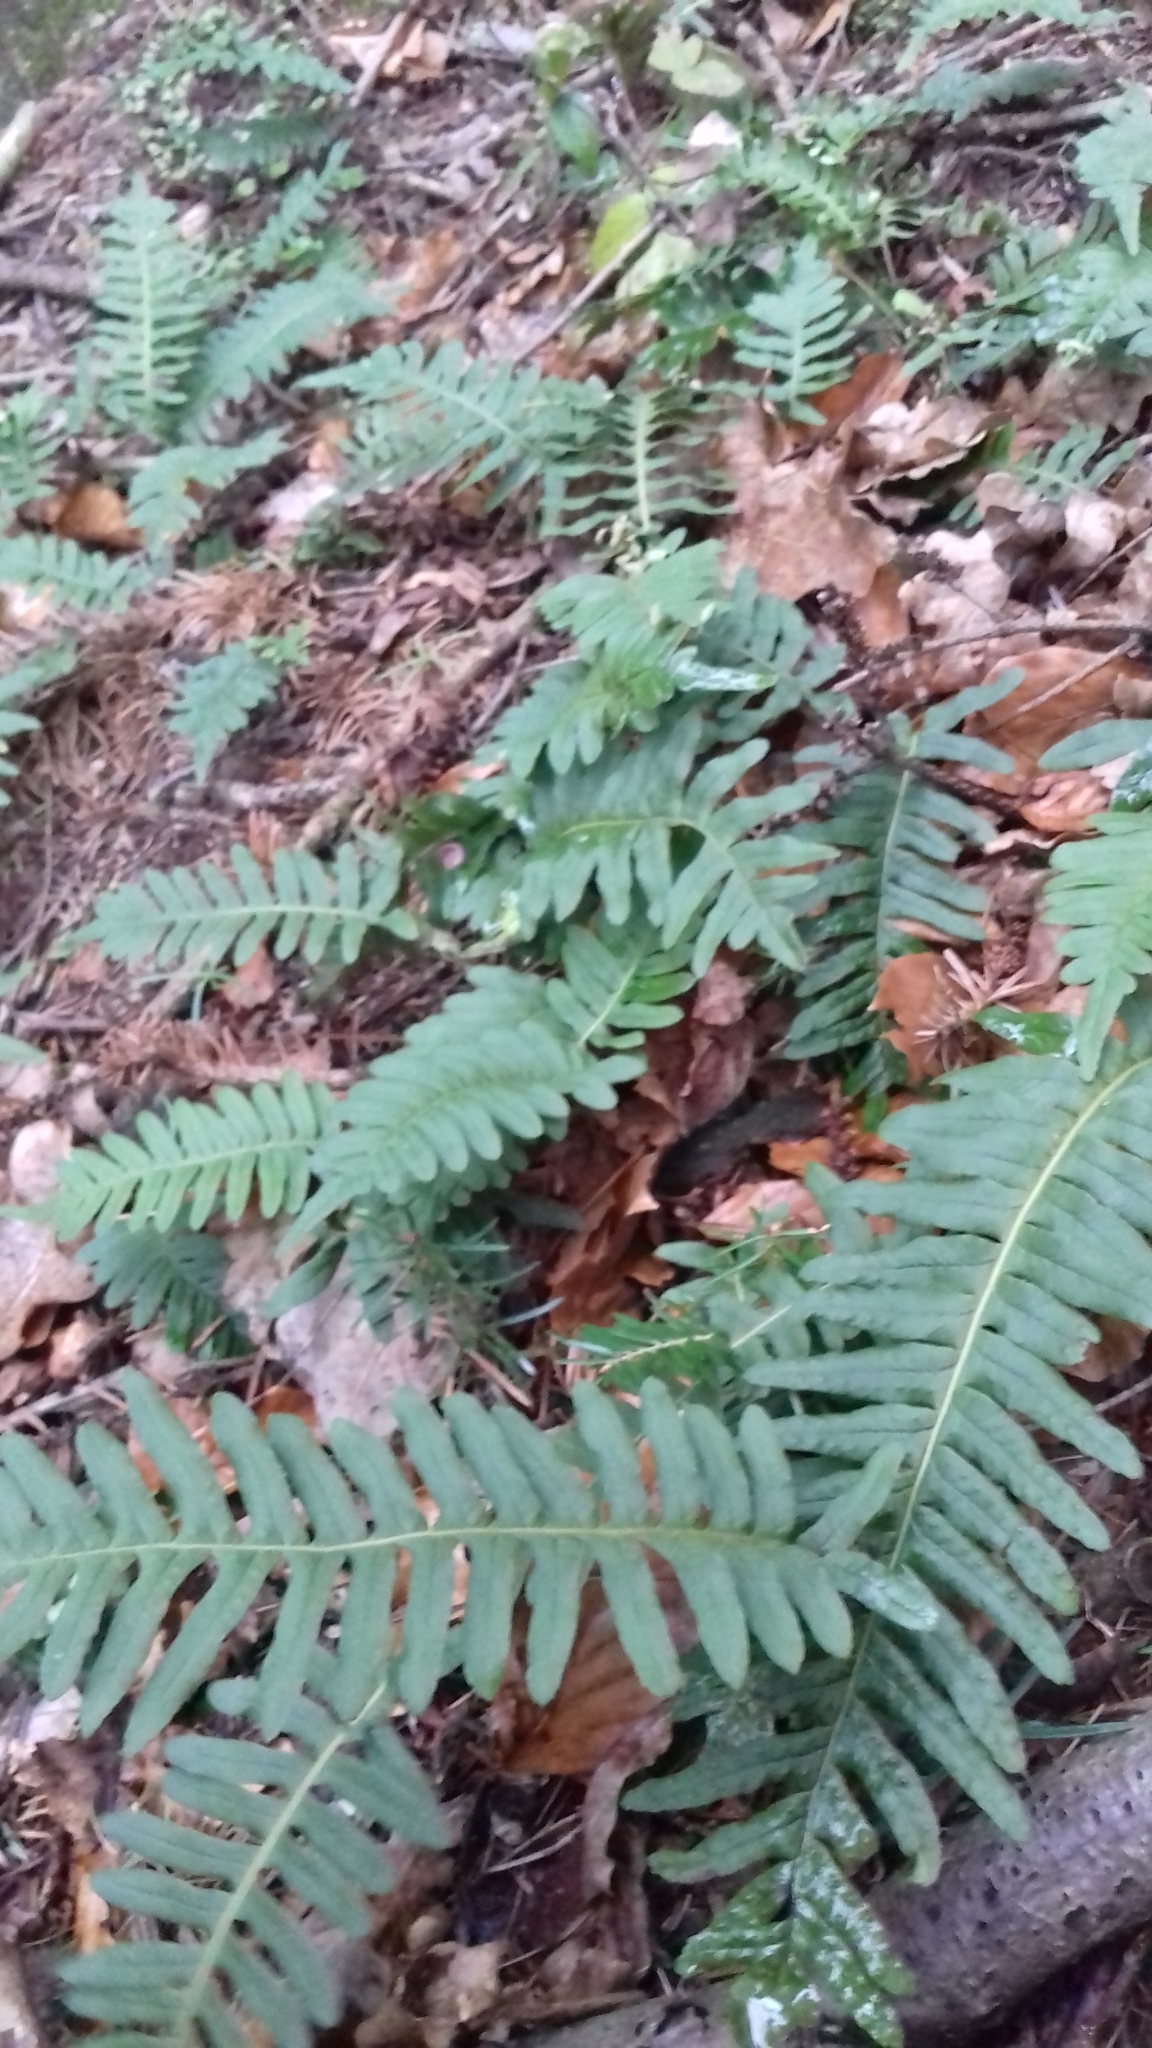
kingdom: Plantae
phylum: Tracheophyta
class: Polypodiopsida
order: Polypodiales
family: Polypodiaceae
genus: Polypodium
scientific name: Polypodium vulgare
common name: Common polypody
